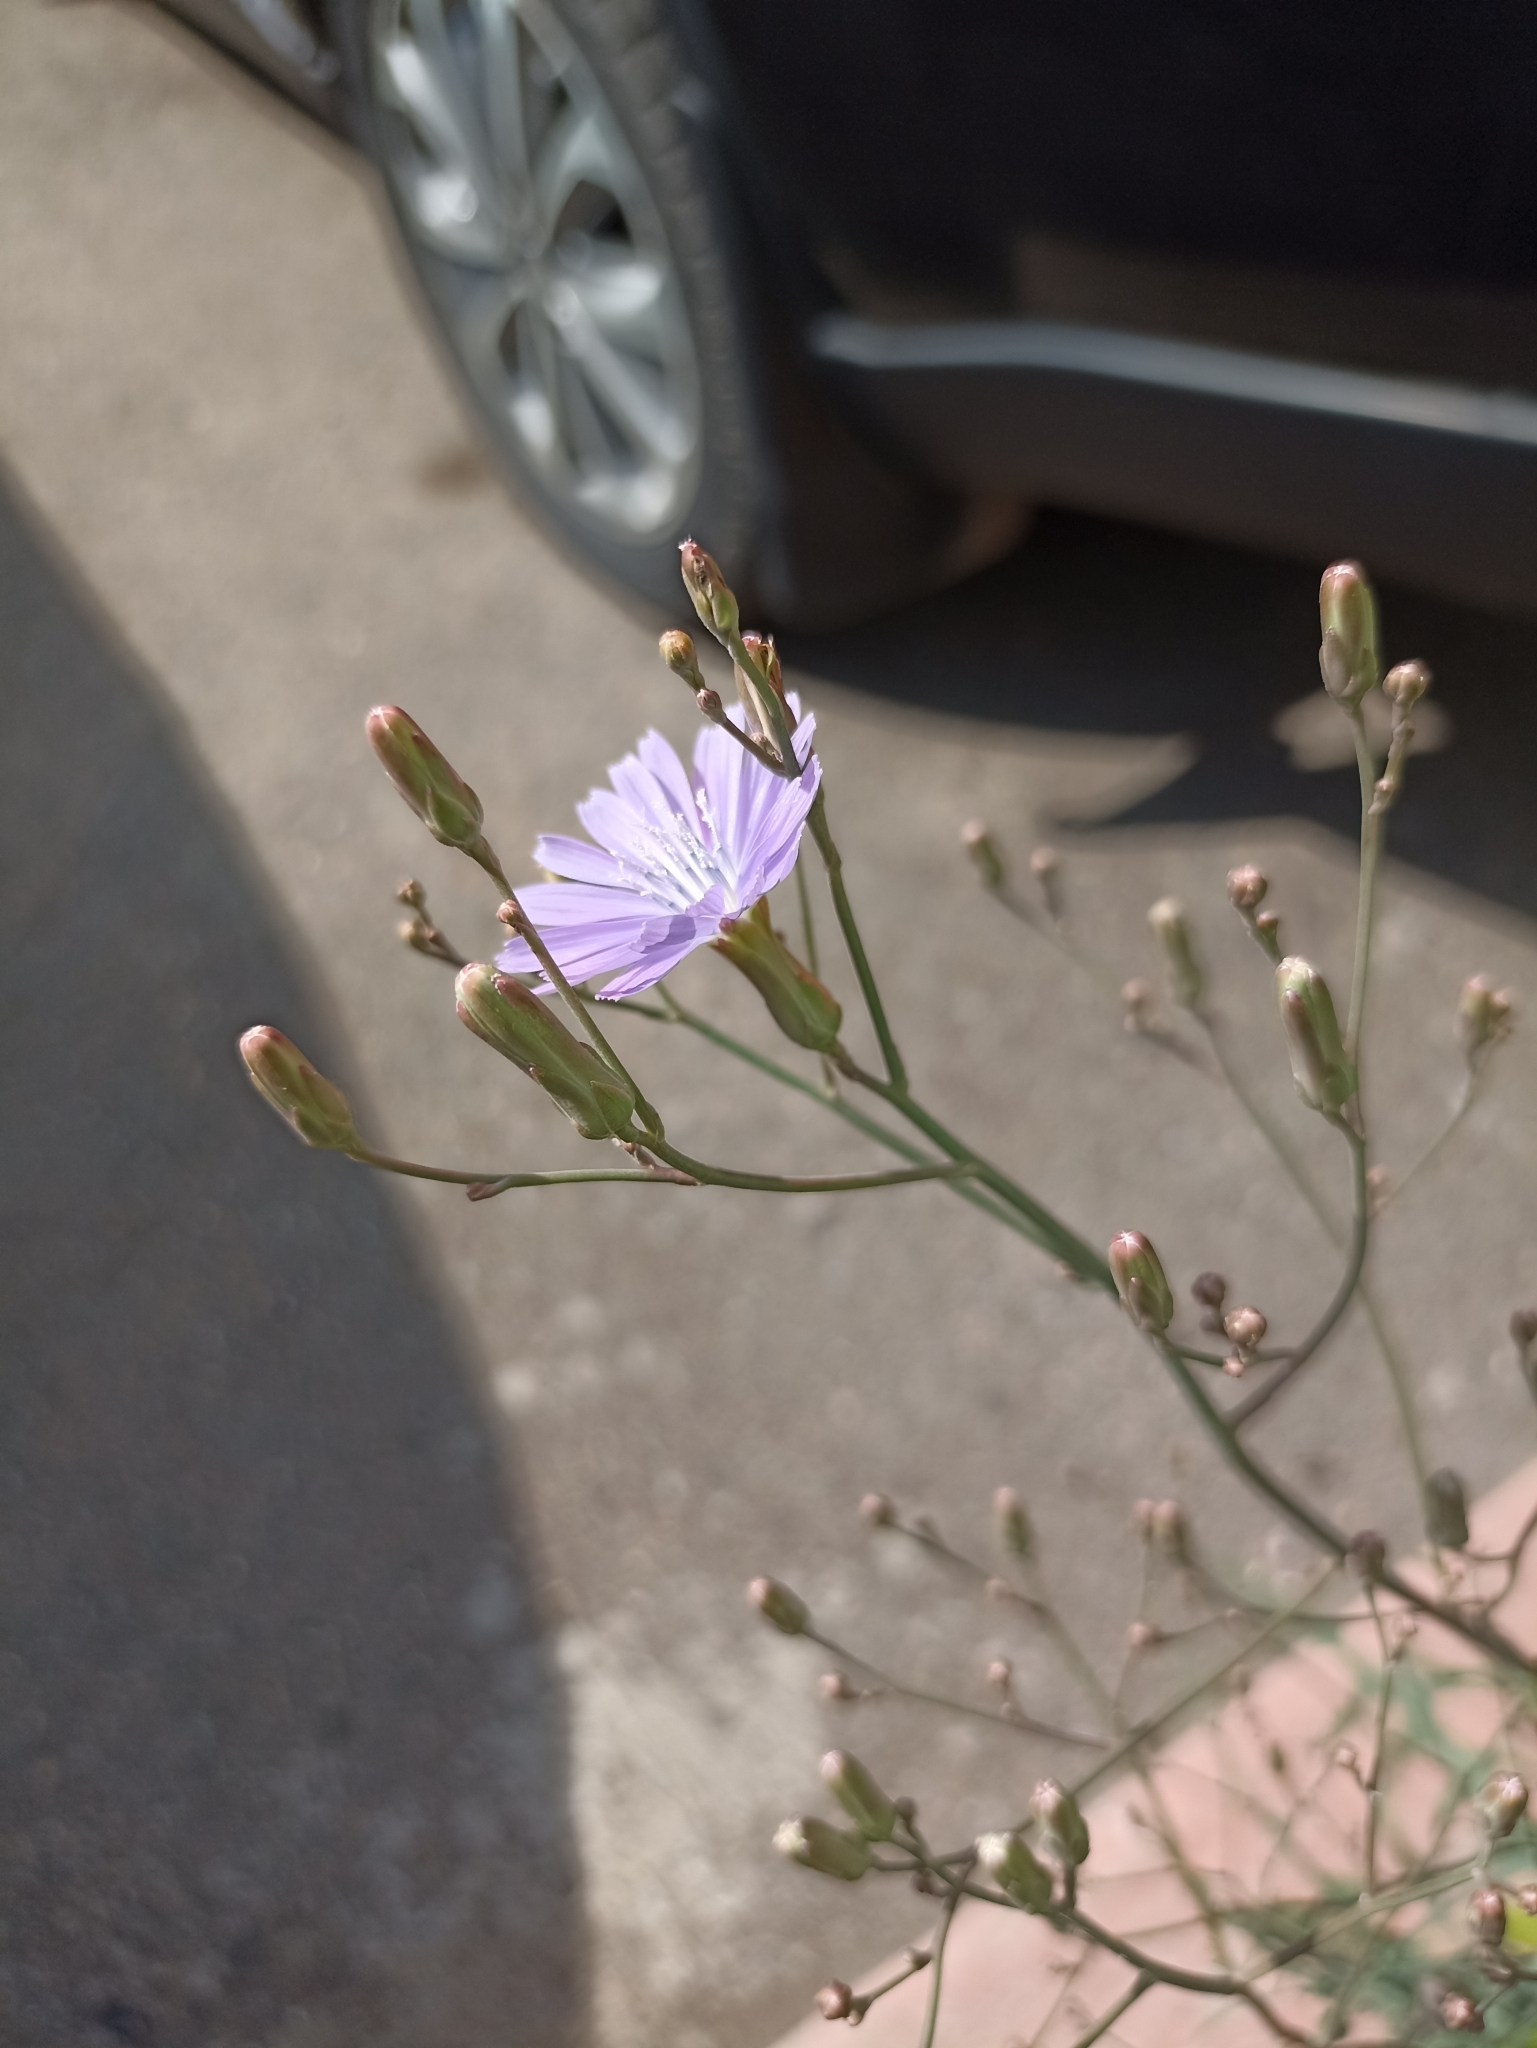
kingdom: Plantae
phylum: Tracheophyta
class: Magnoliopsida
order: Asterales
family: Asteraceae
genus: Lactuca
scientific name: Lactuca tatarica
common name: Blue lettuce
